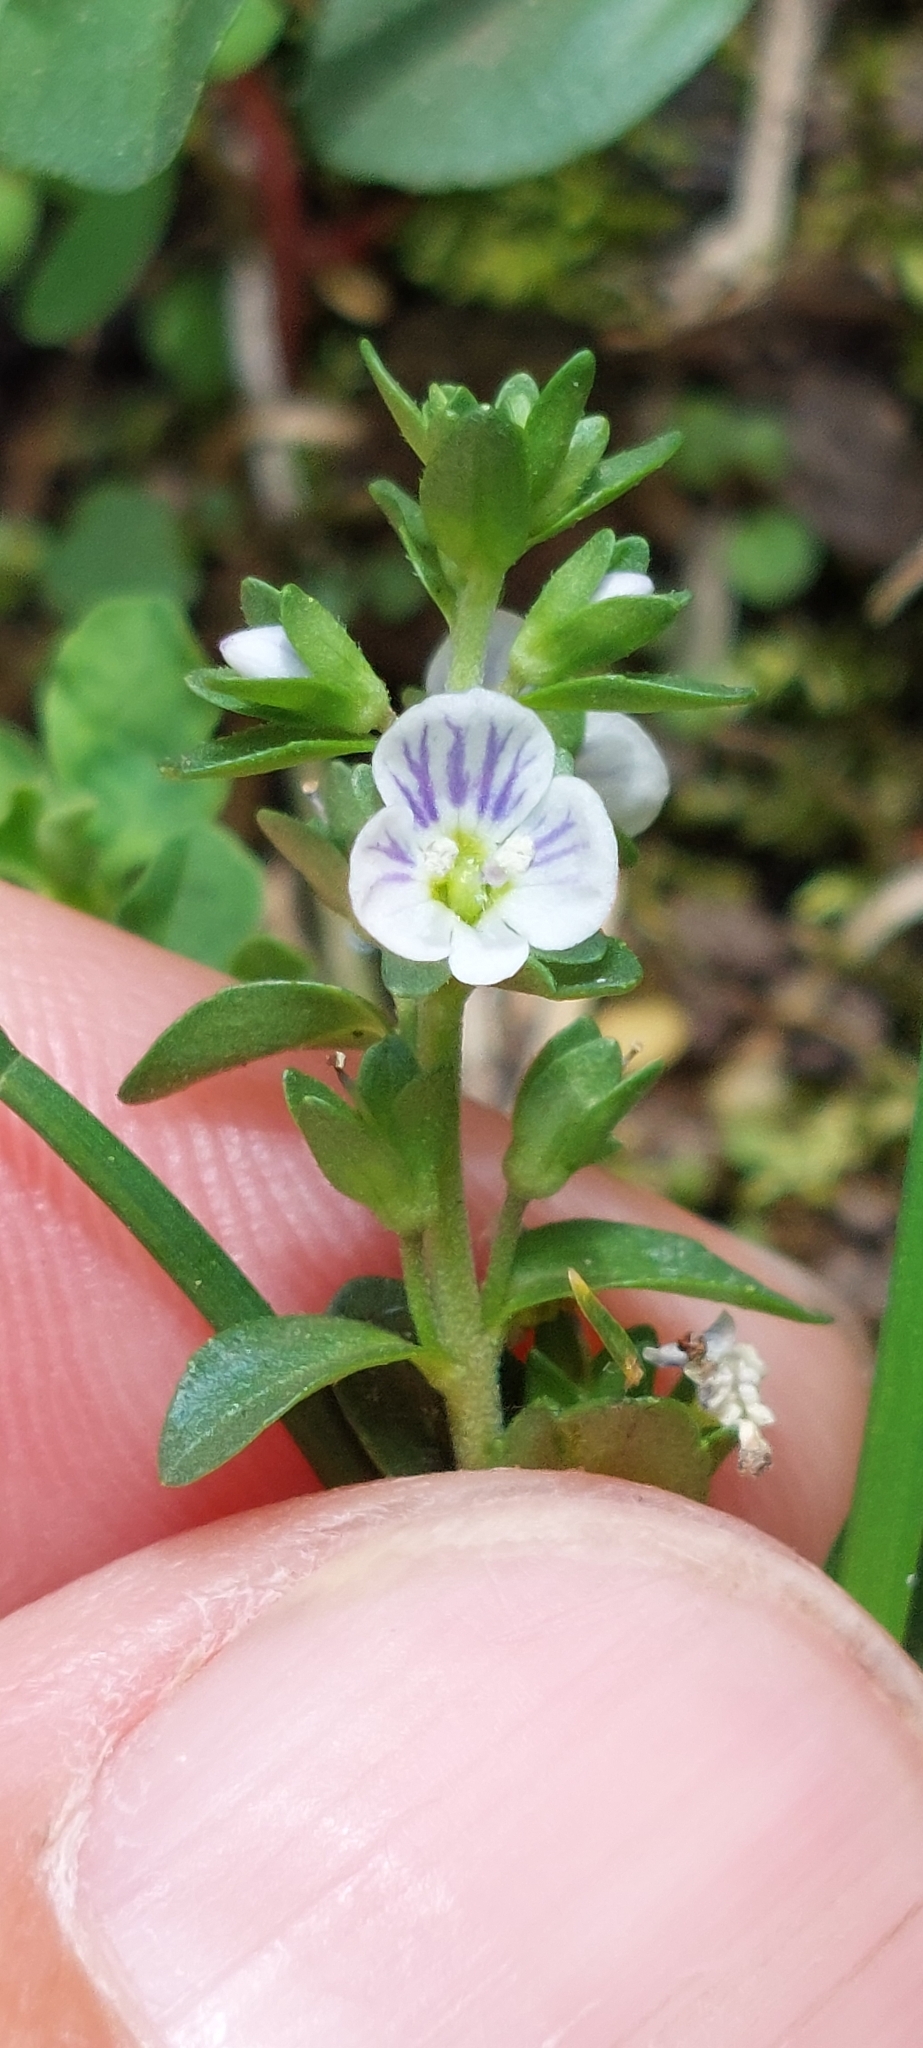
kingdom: Plantae
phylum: Tracheophyta
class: Magnoliopsida
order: Lamiales
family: Plantaginaceae
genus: Veronica
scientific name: Veronica serpyllifolia
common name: Thyme-leaved speedwell
